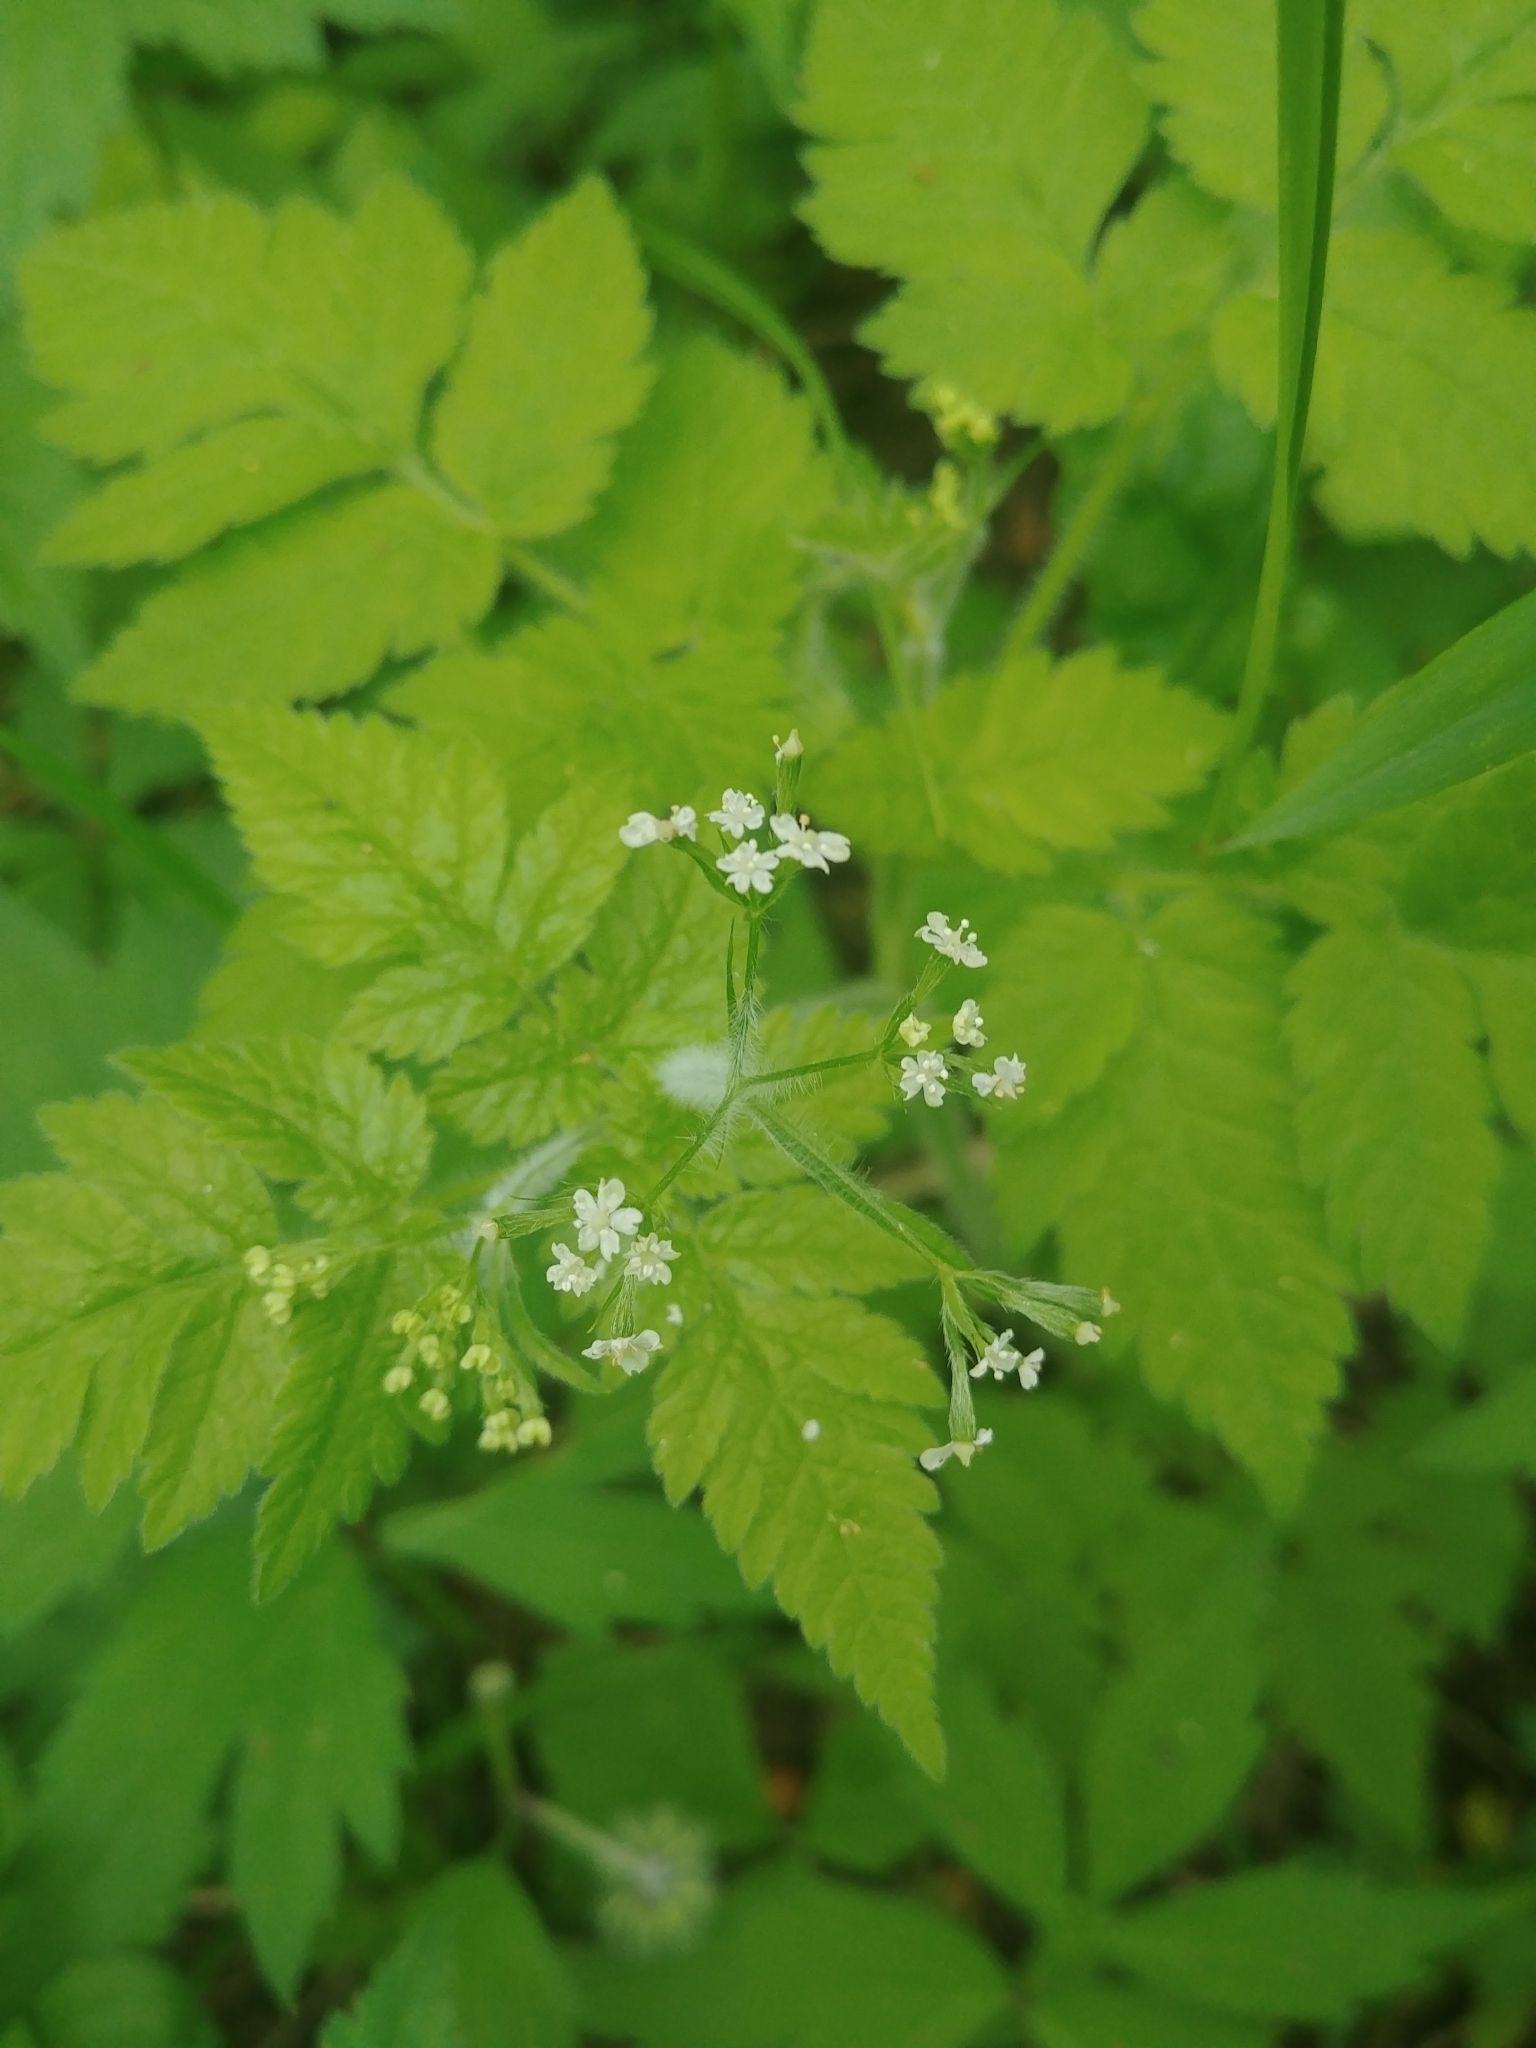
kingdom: Plantae
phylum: Tracheophyta
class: Magnoliopsida
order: Apiales
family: Apiaceae
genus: Osmorhiza
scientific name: Osmorhiza claytonii
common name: Hairy sweet cicely
